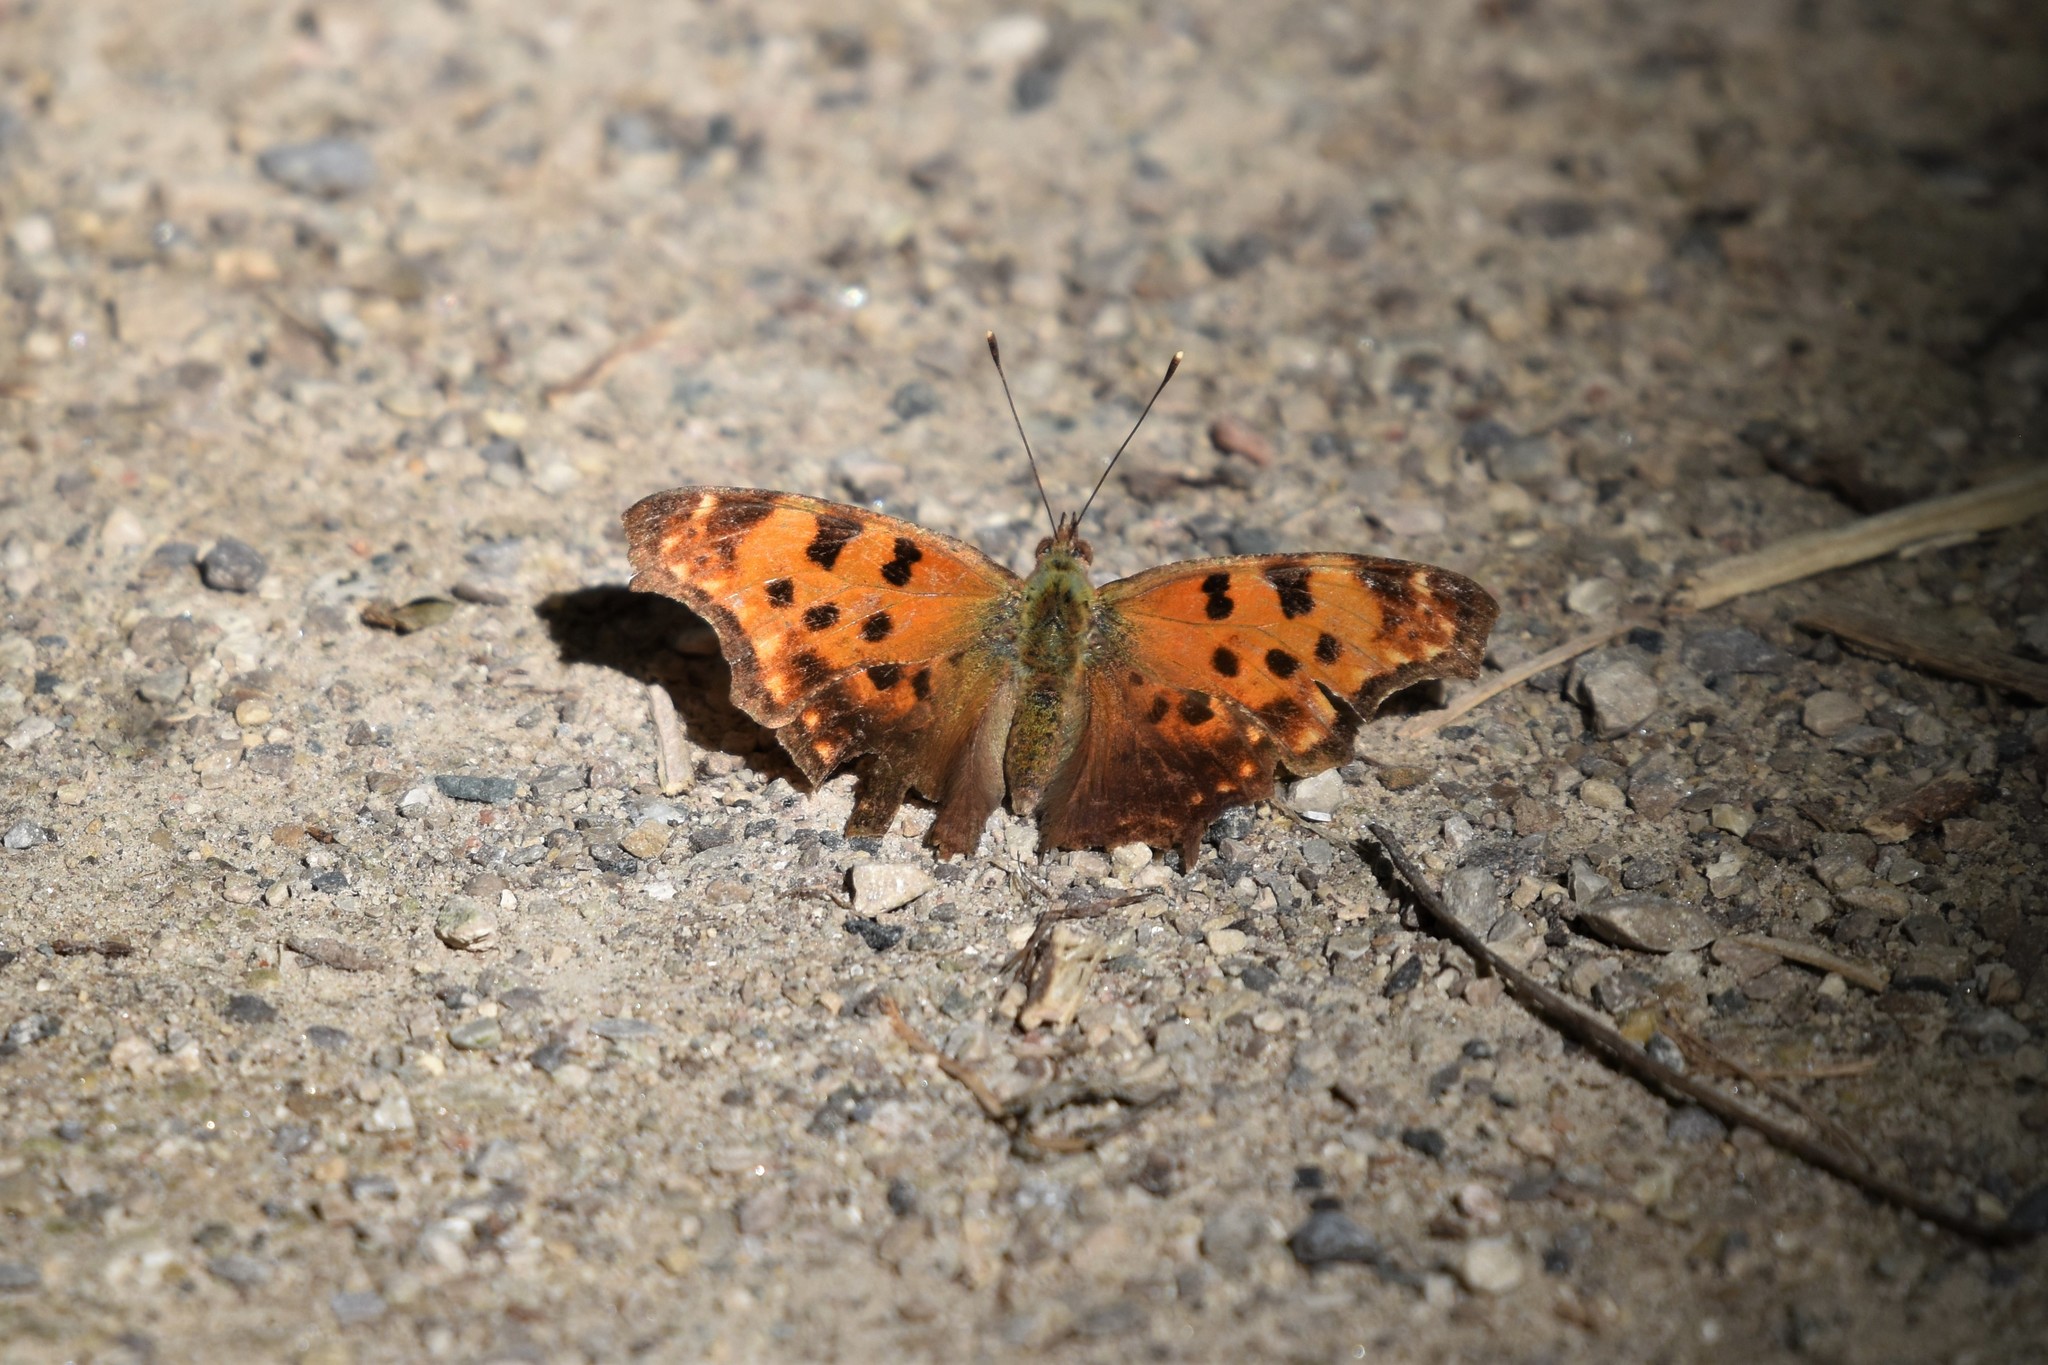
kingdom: Animalia
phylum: Arthropoda
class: Insecta
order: Lepidoptera
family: Nymphalidae
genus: Polygonia
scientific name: Polygonia comma
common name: Eastern comma
